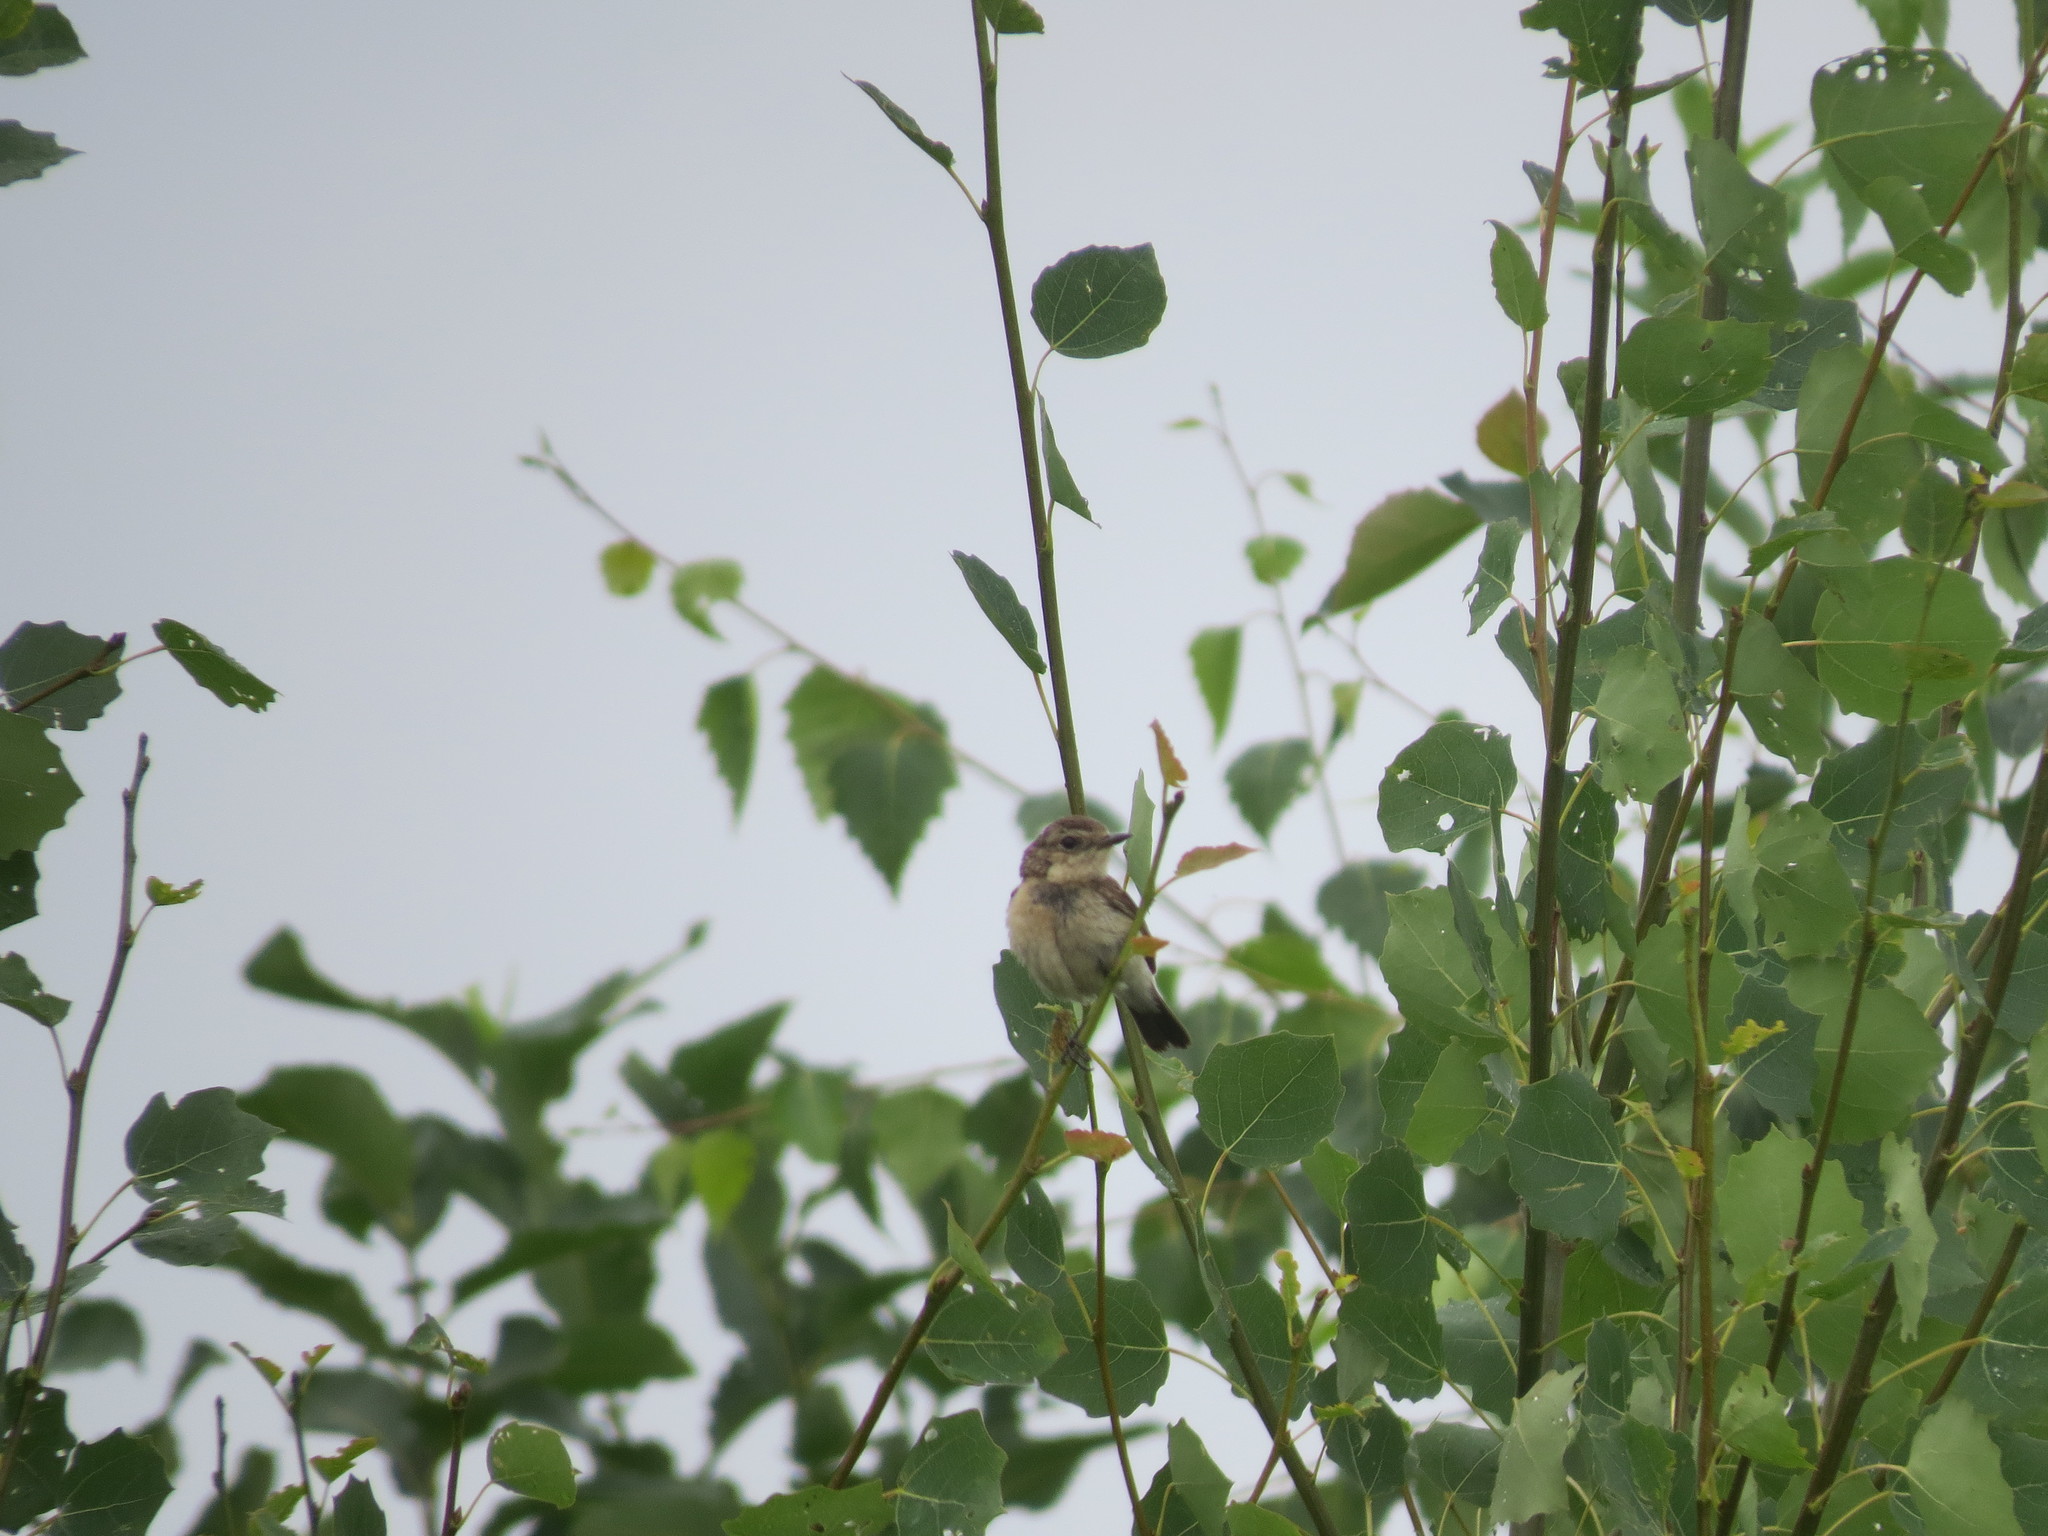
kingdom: Animalia
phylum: Chordata
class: Aves
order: Passeriformes
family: Muscicapidae
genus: Saxicola
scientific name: Saxicola maurus
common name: Siberian stonechat
